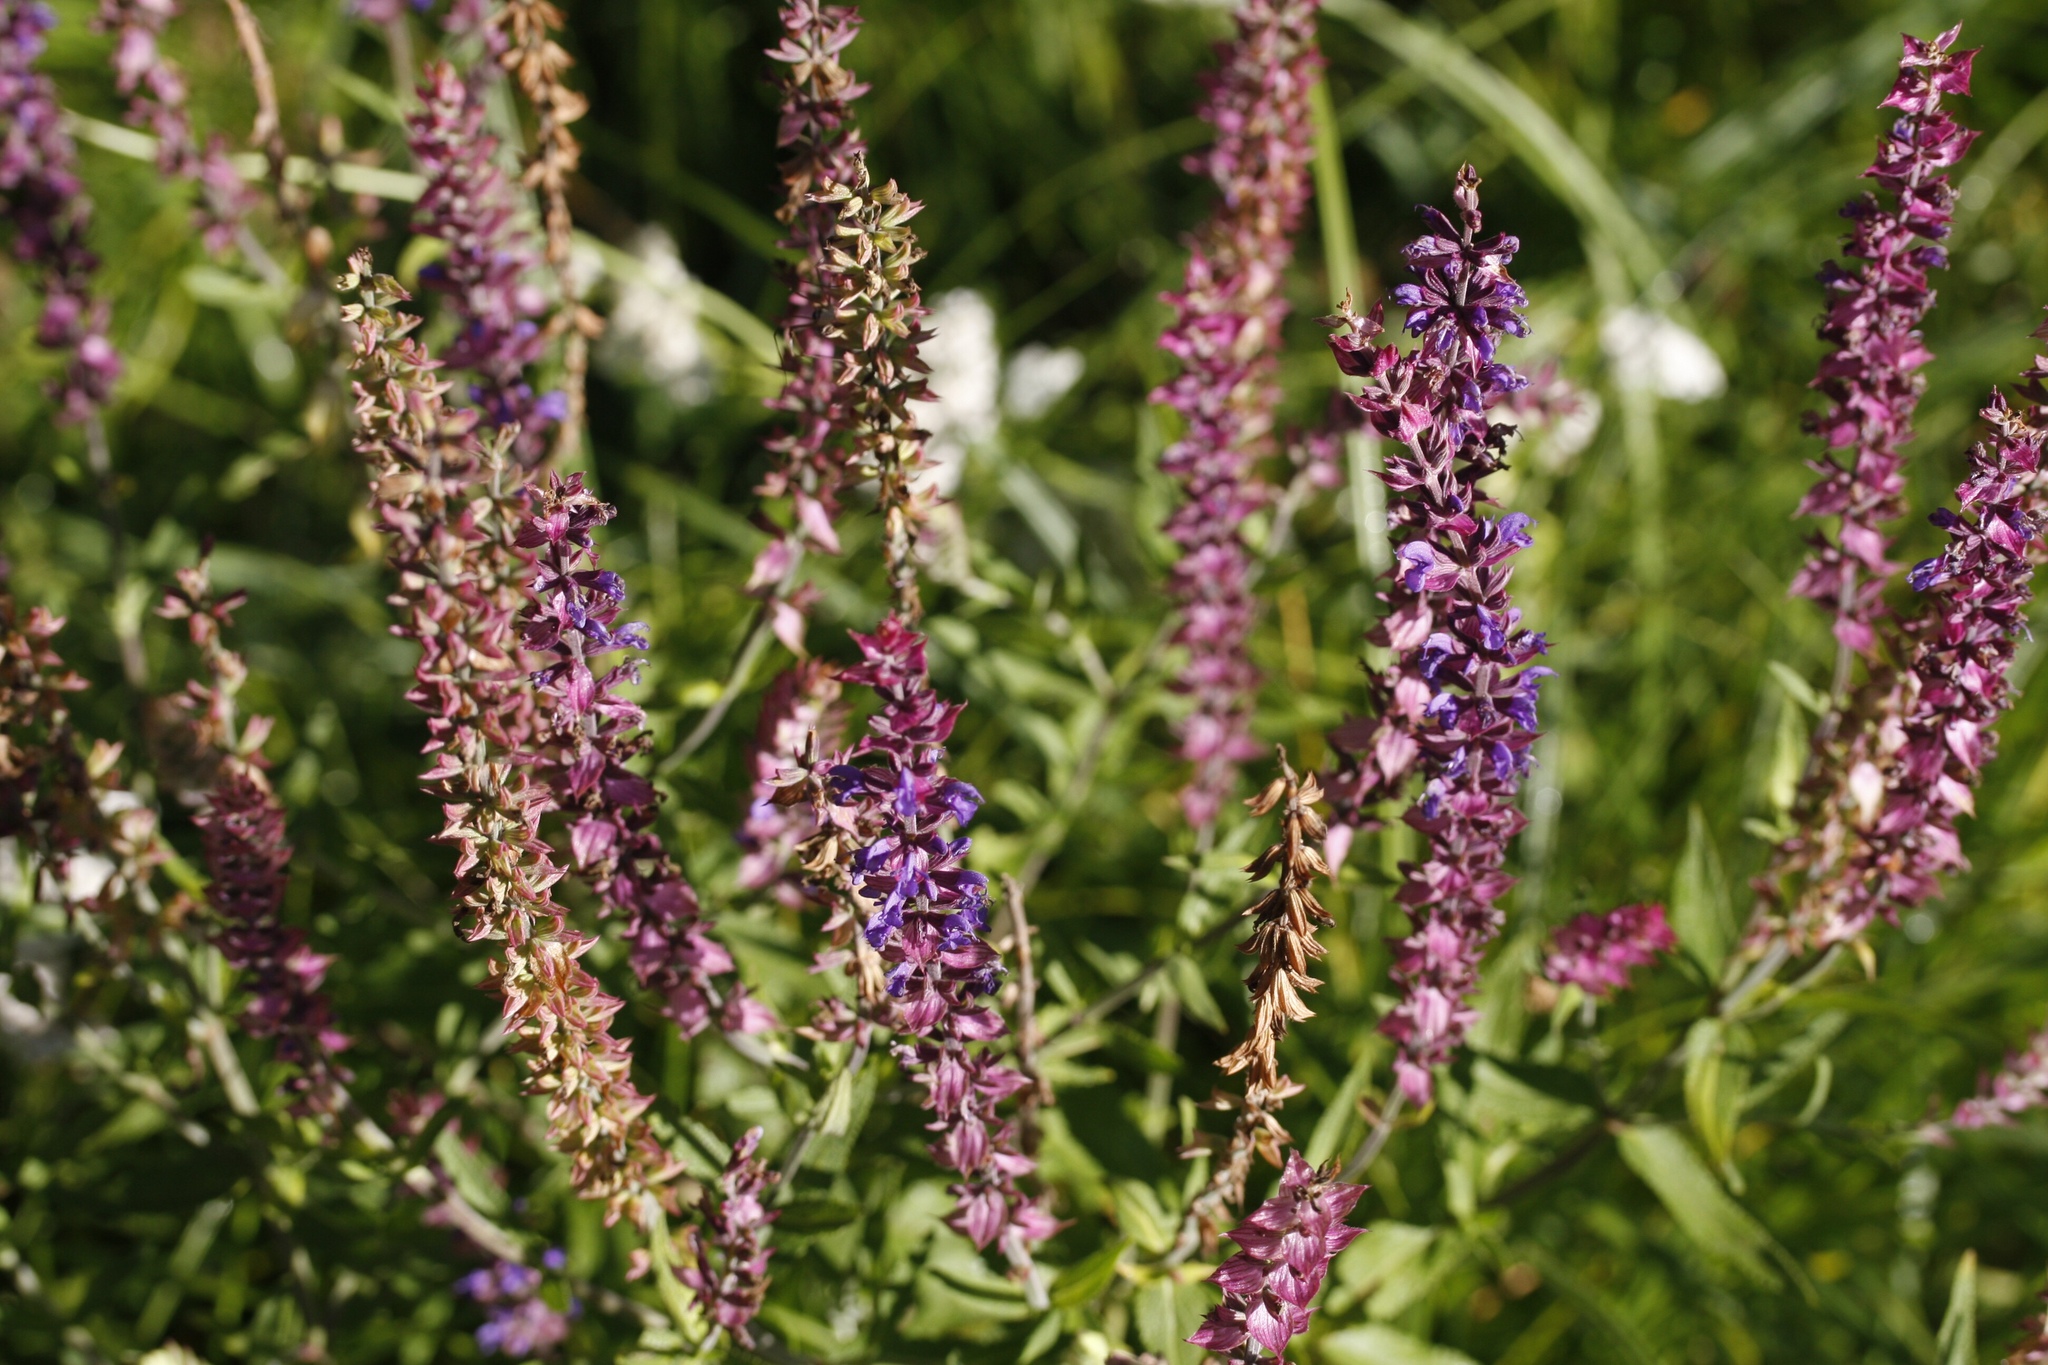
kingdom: Plantae
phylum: Tracheophyta
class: Magnoliopsida
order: Lamiales
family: Lamiaceae
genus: Salvia
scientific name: Salvia nemorosa
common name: Balkan clary
